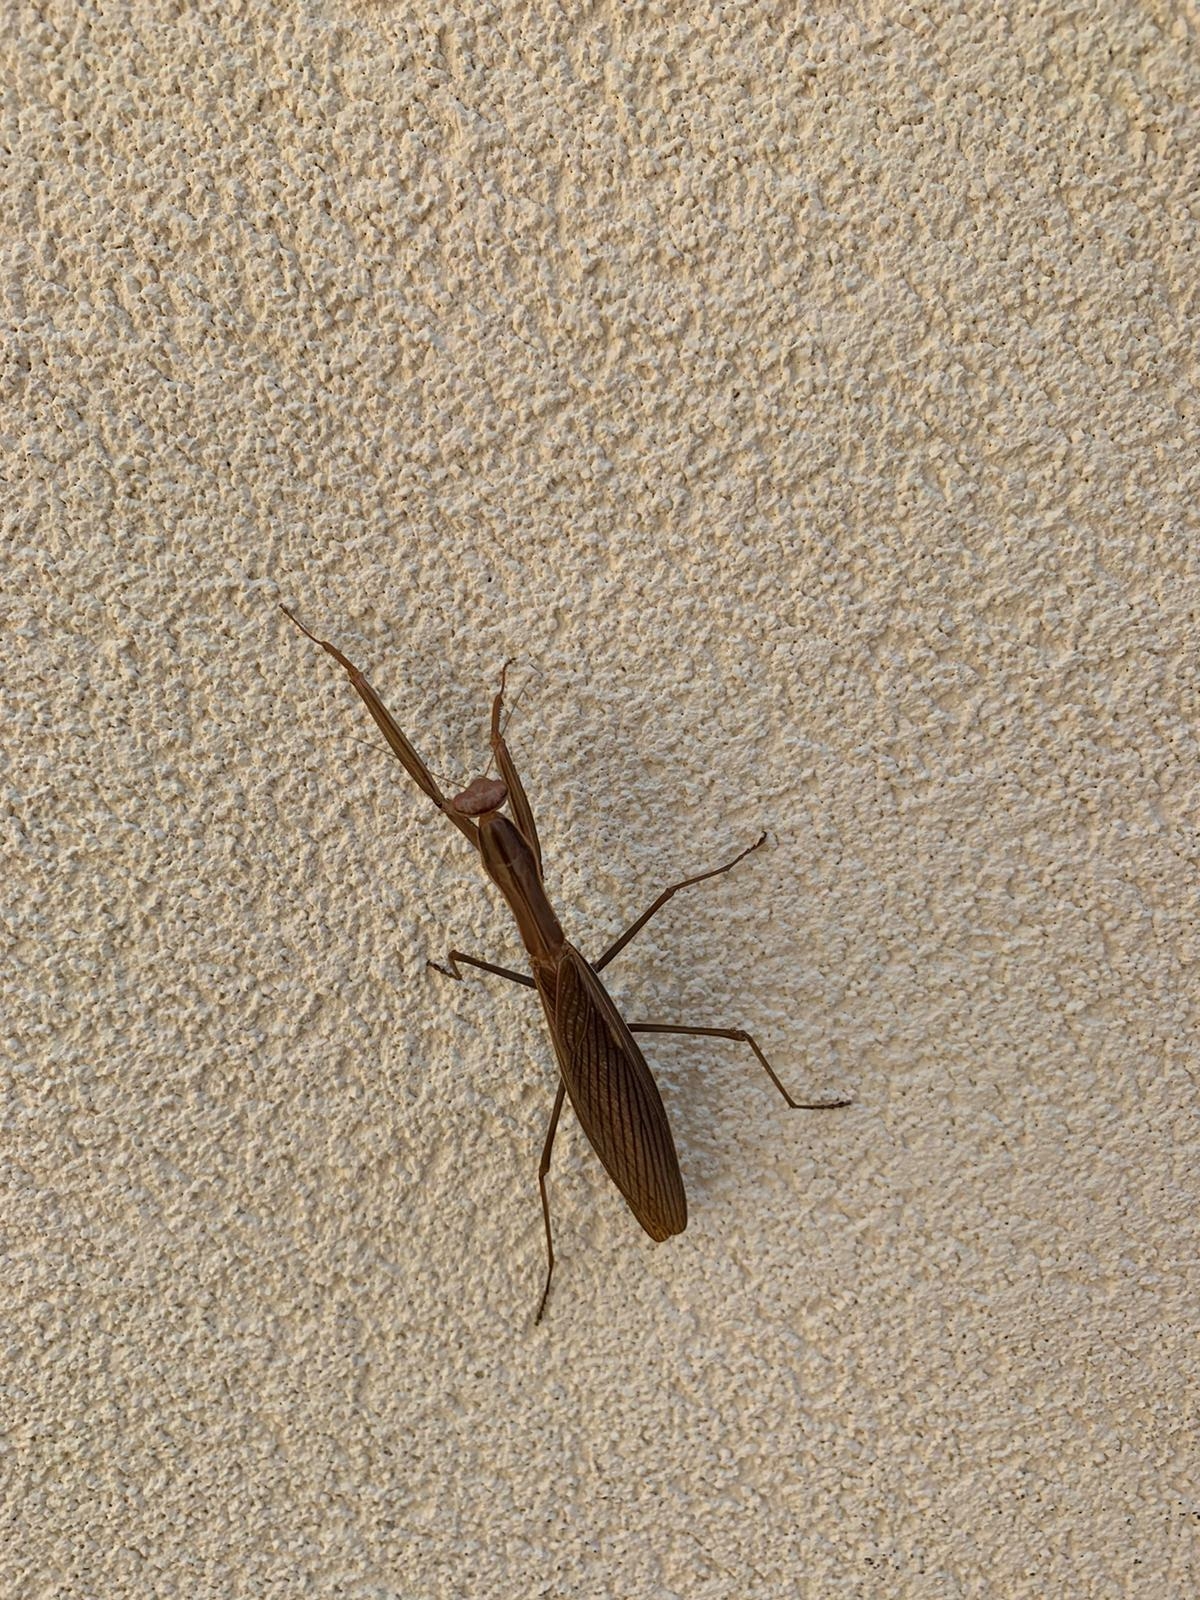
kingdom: Animalia
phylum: Arthropoda
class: Insecta
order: Mantodea
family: Mantidae
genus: Mantis
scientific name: Mantis religiosa
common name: Praying mantis
